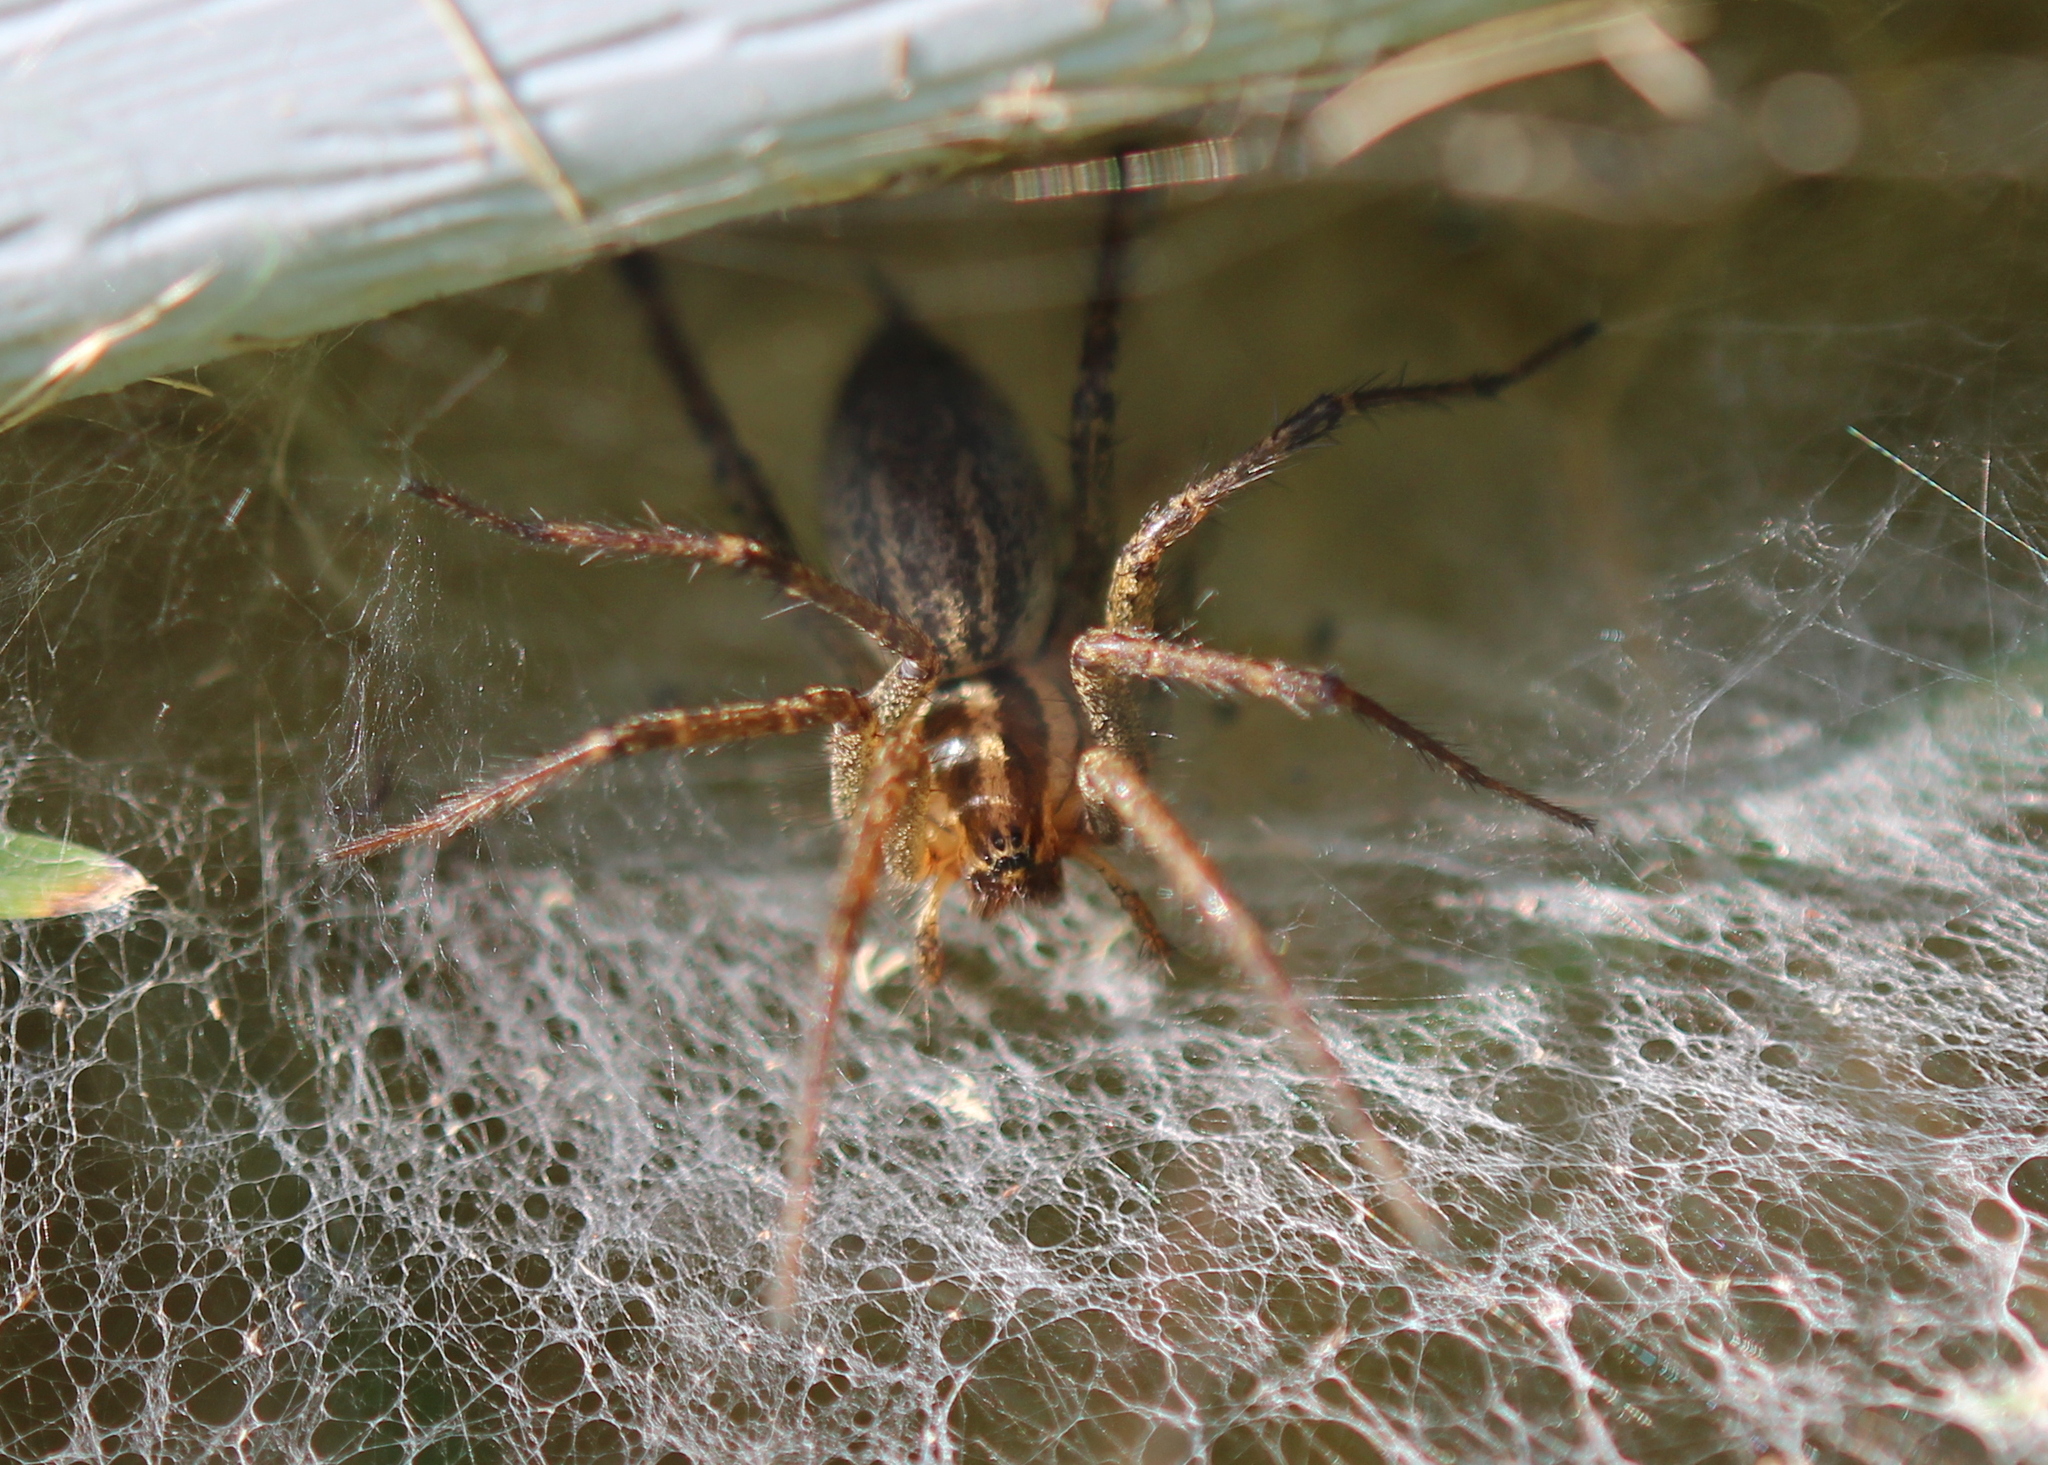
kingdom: Animalia
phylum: Arthropoda
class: Arachnida
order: Araneae
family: Agelenidae
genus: Agelenopsis
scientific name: Agelenopsis
